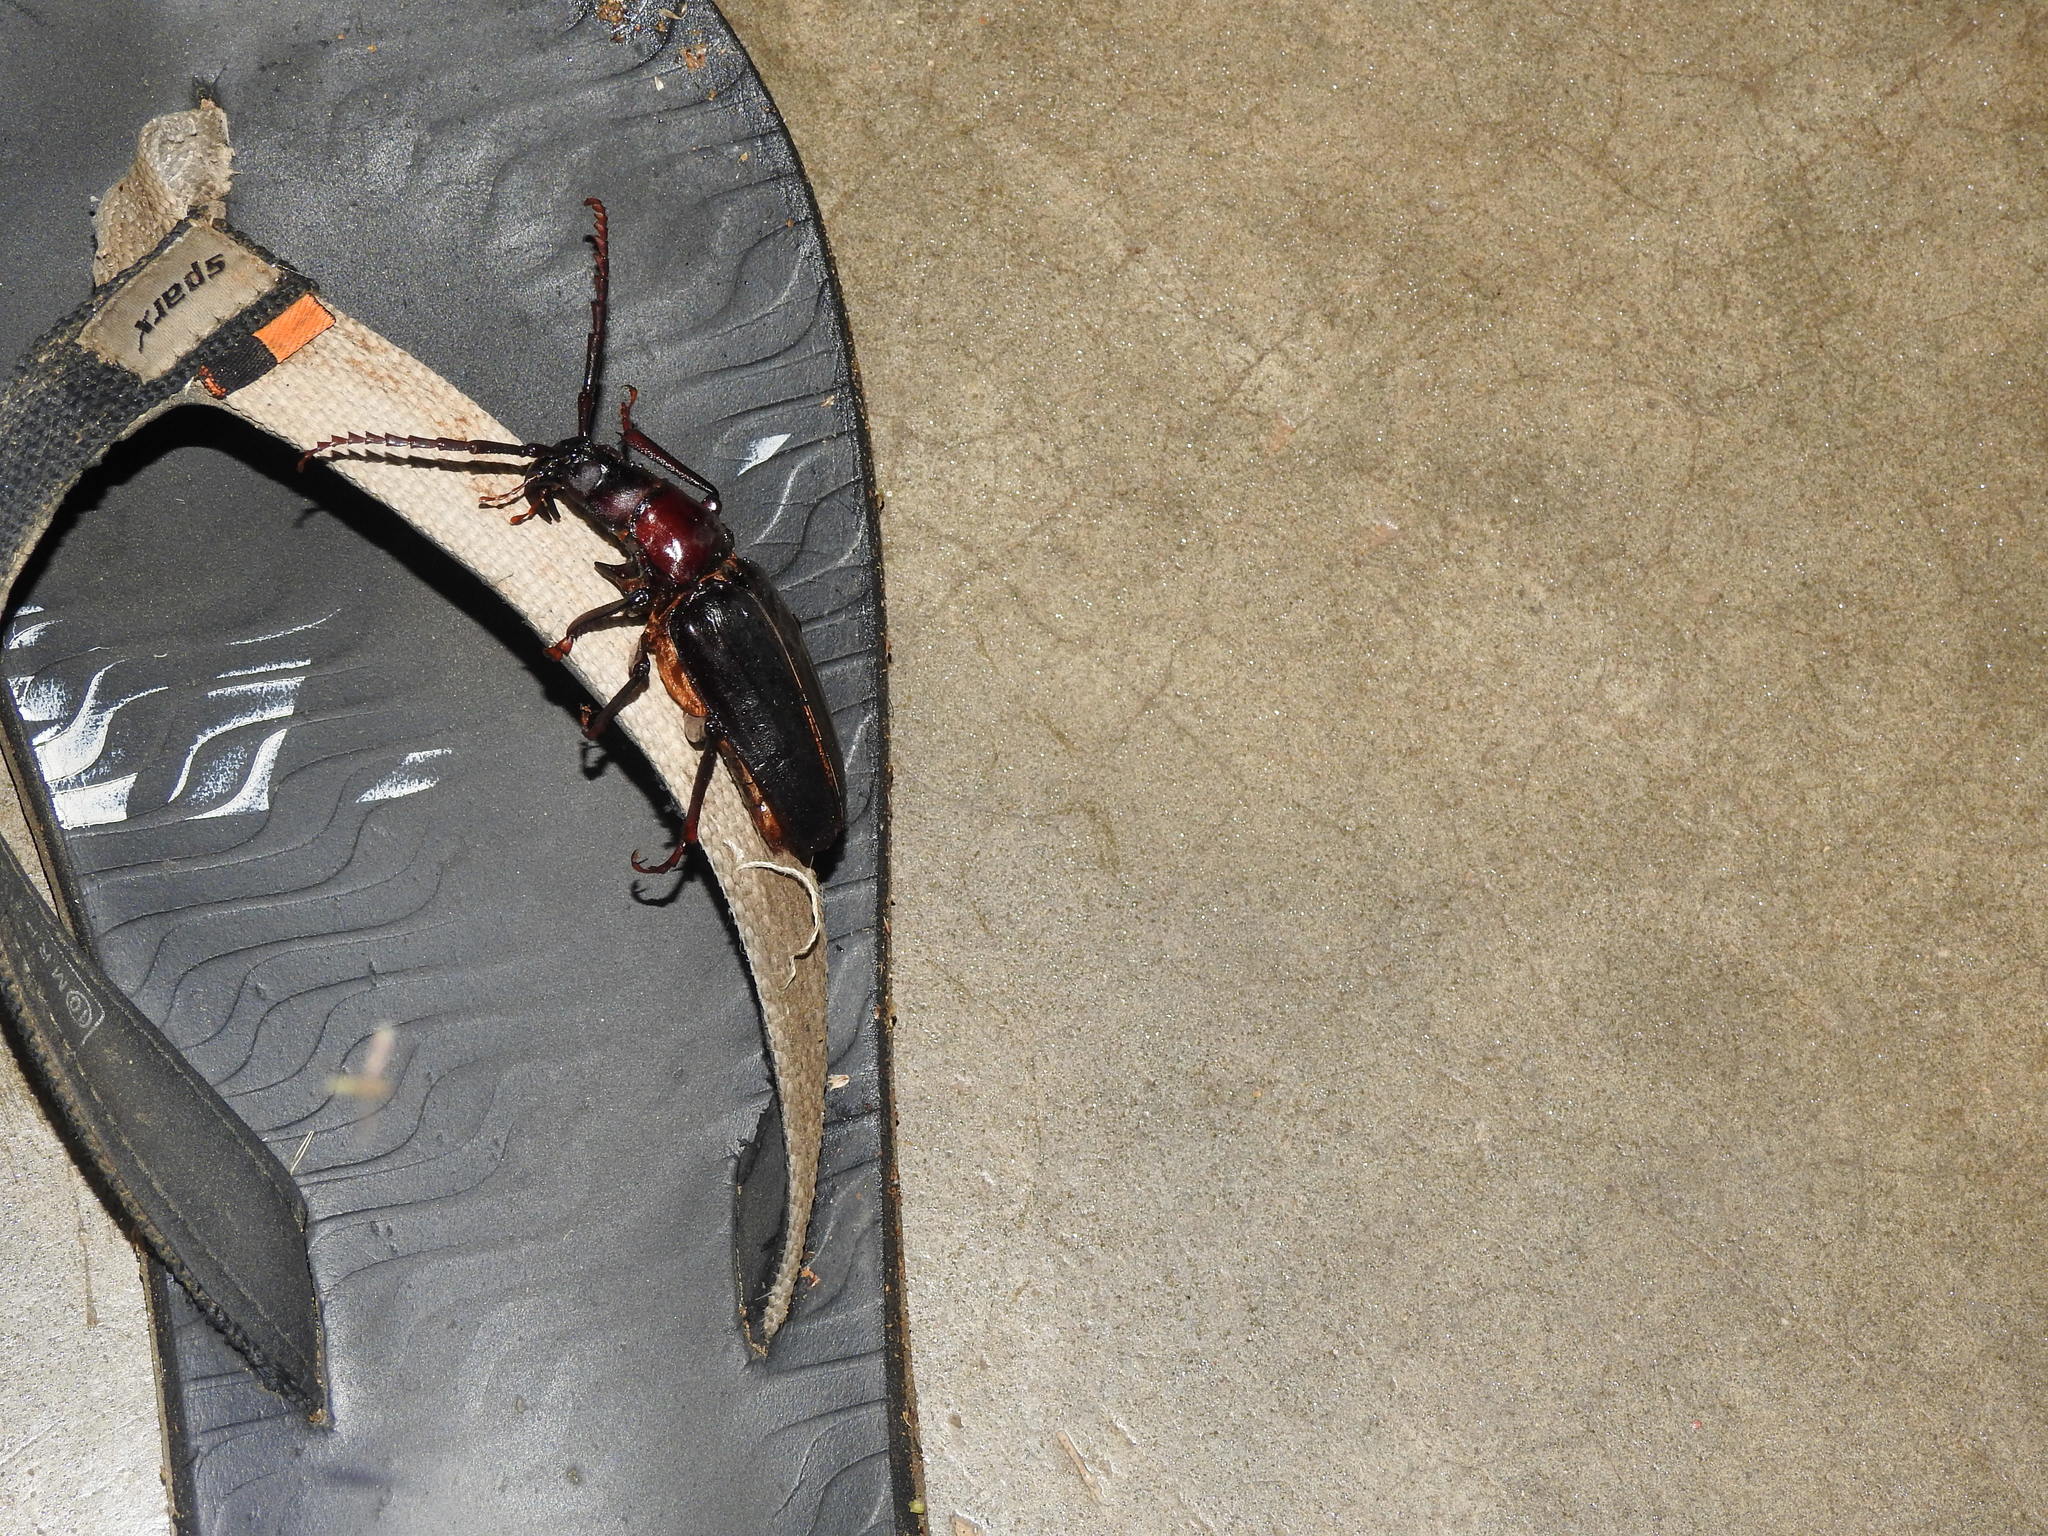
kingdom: Animalia
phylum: Arthropoda
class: Insecta
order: Coleoptera
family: Cerambycidae
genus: Dorysthenes
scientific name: Dorysthenes rostratus
